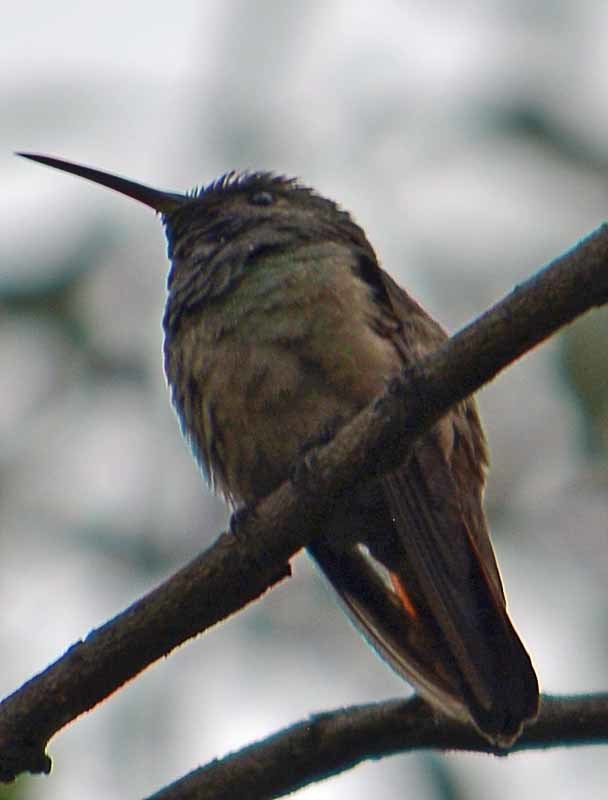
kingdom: Animalia
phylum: Chordata
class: Aves
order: Apodiformes
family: Trochilidae
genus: Saucerottia
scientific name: Saucerottia beryllina
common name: Berylline hummingbird
